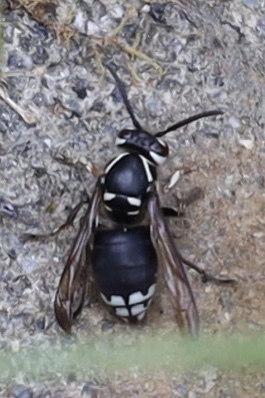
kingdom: Animalia
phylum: Arthropoda
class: Insecta
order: Hymenoptera
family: Vespidae
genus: Dolichovespula
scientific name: Dolichovespula maculata
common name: Bald-faced hornet
